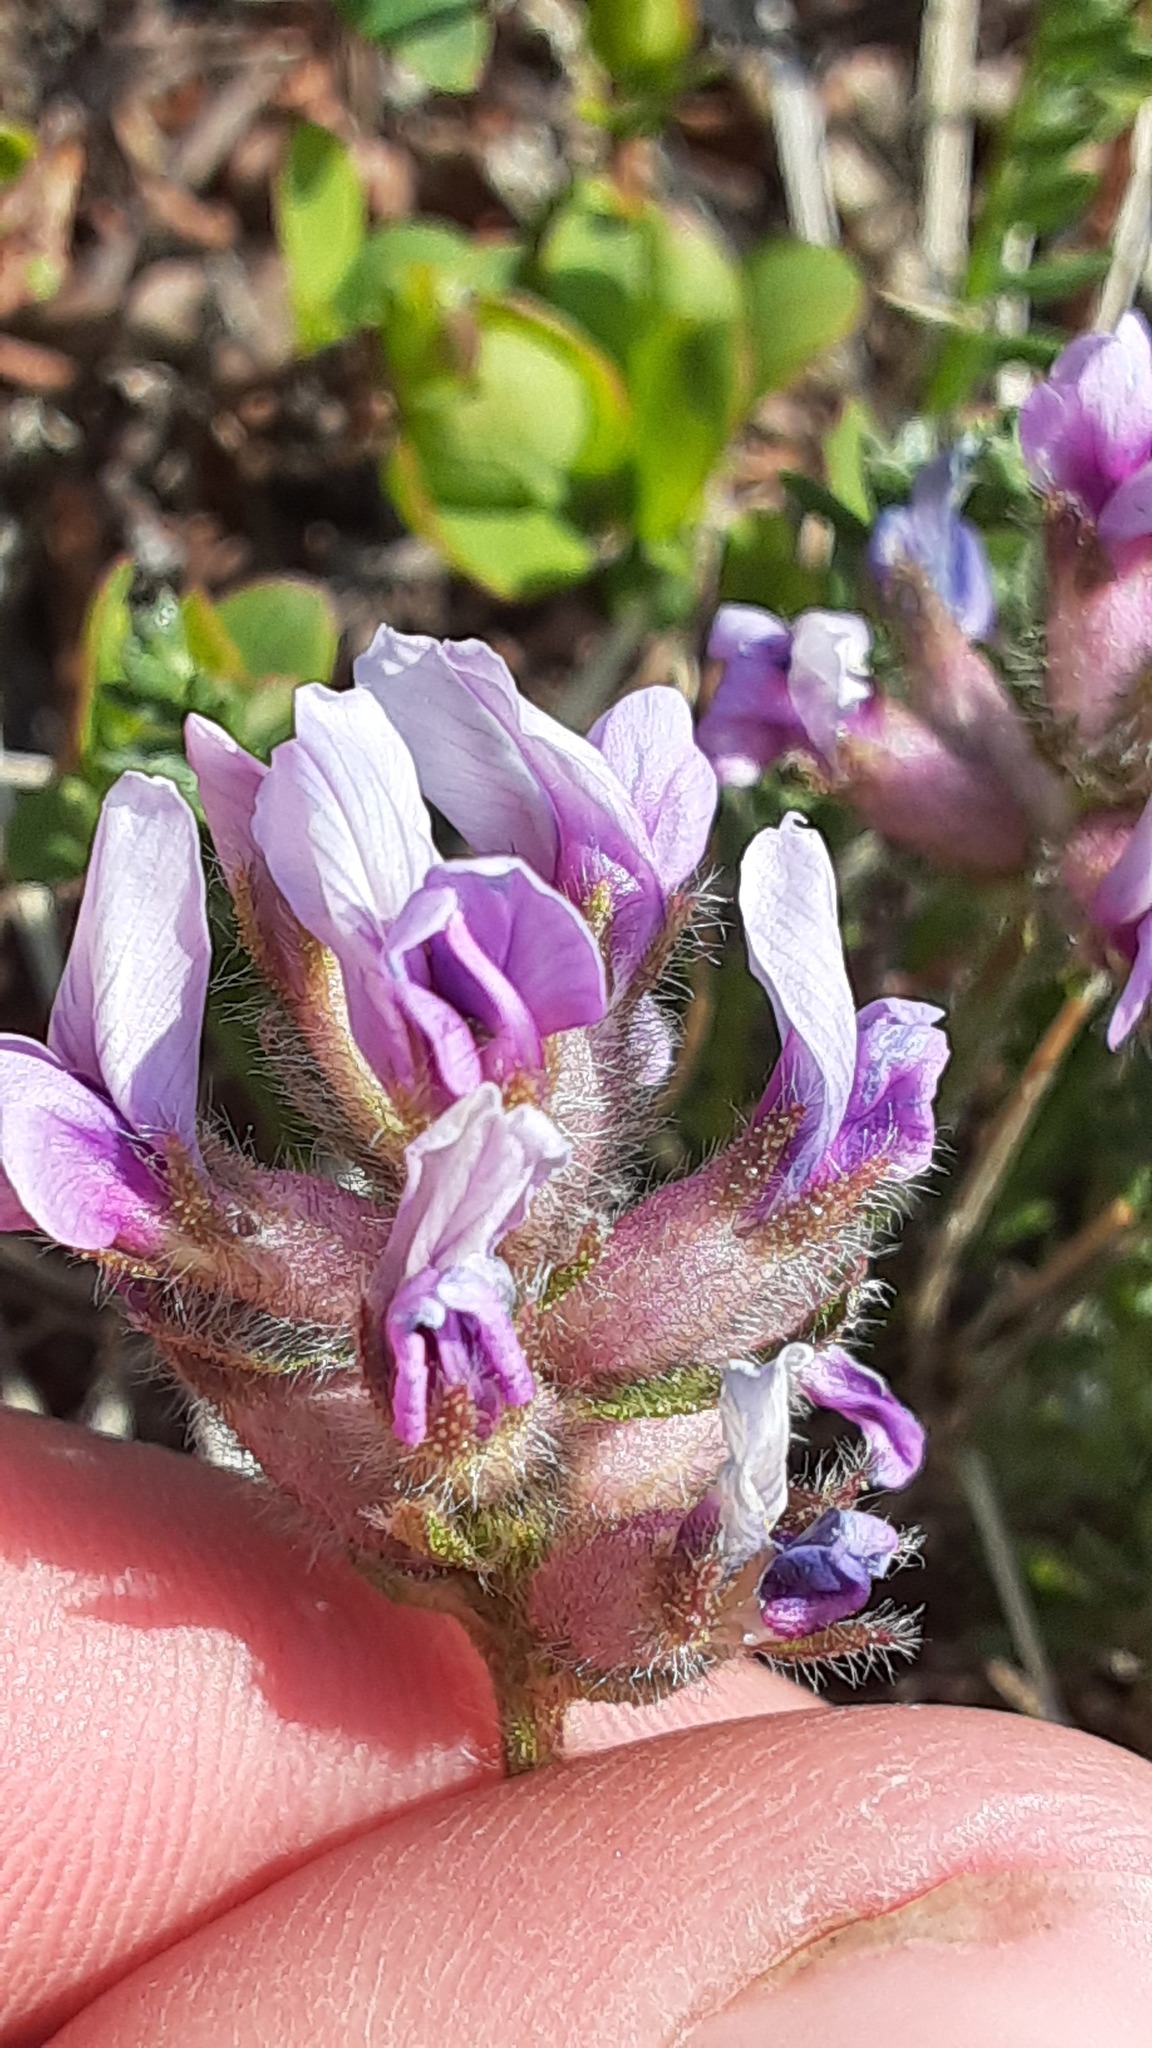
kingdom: Plantae
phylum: Tracheophyta
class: Magnoliopsida
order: Fabales
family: Fabaceae
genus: Oxytropis
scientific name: Oxytropis borealis
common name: Boreal locoweed
